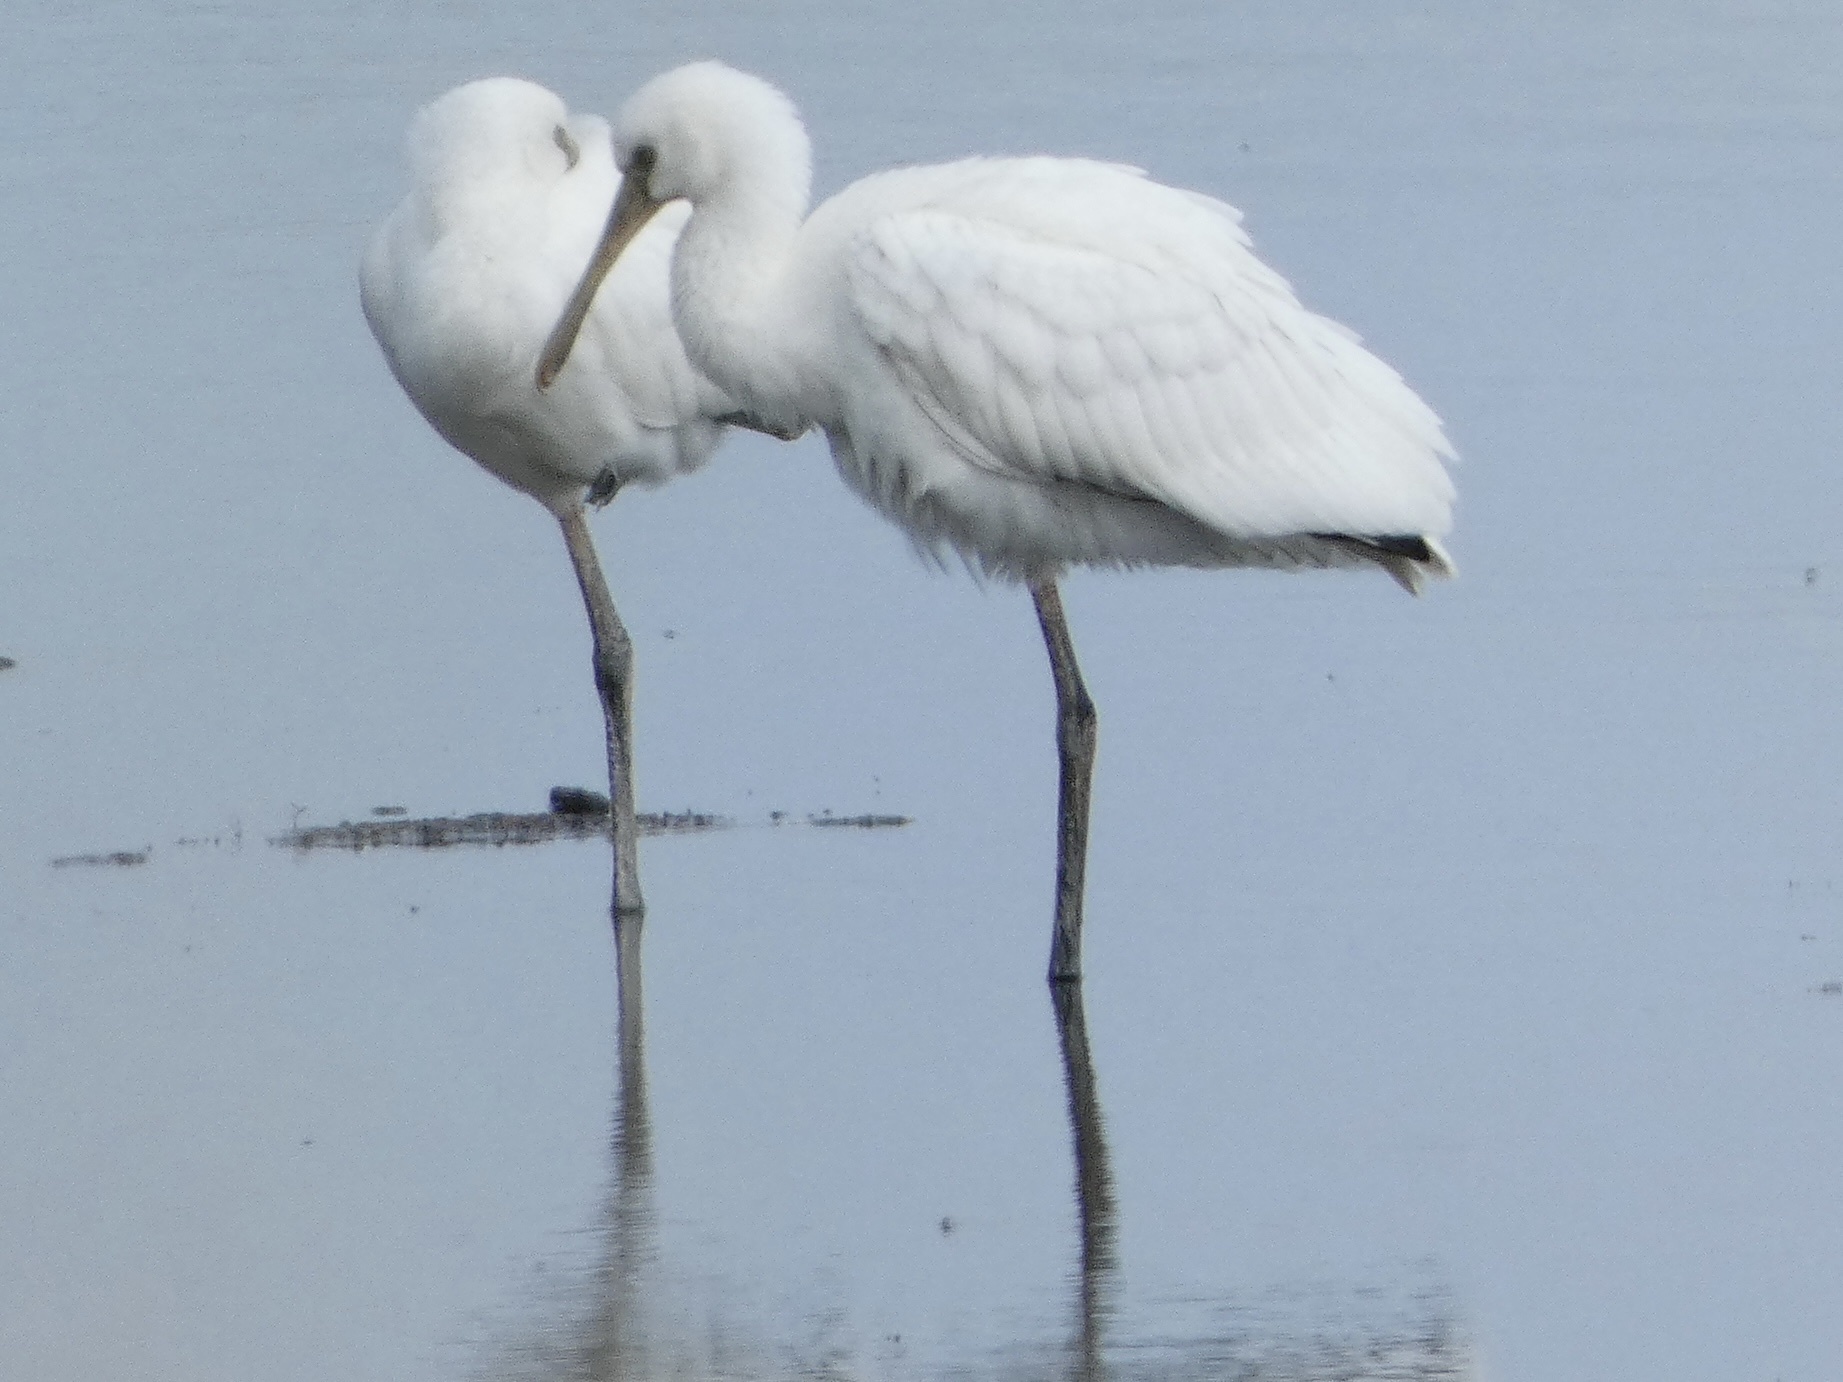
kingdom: Animalia
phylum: Chordata
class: Aves
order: Pelecaniformes
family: Threskiornithidae
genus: Platalea
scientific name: Platalea leucorodia
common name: Eurasian spoonbill
